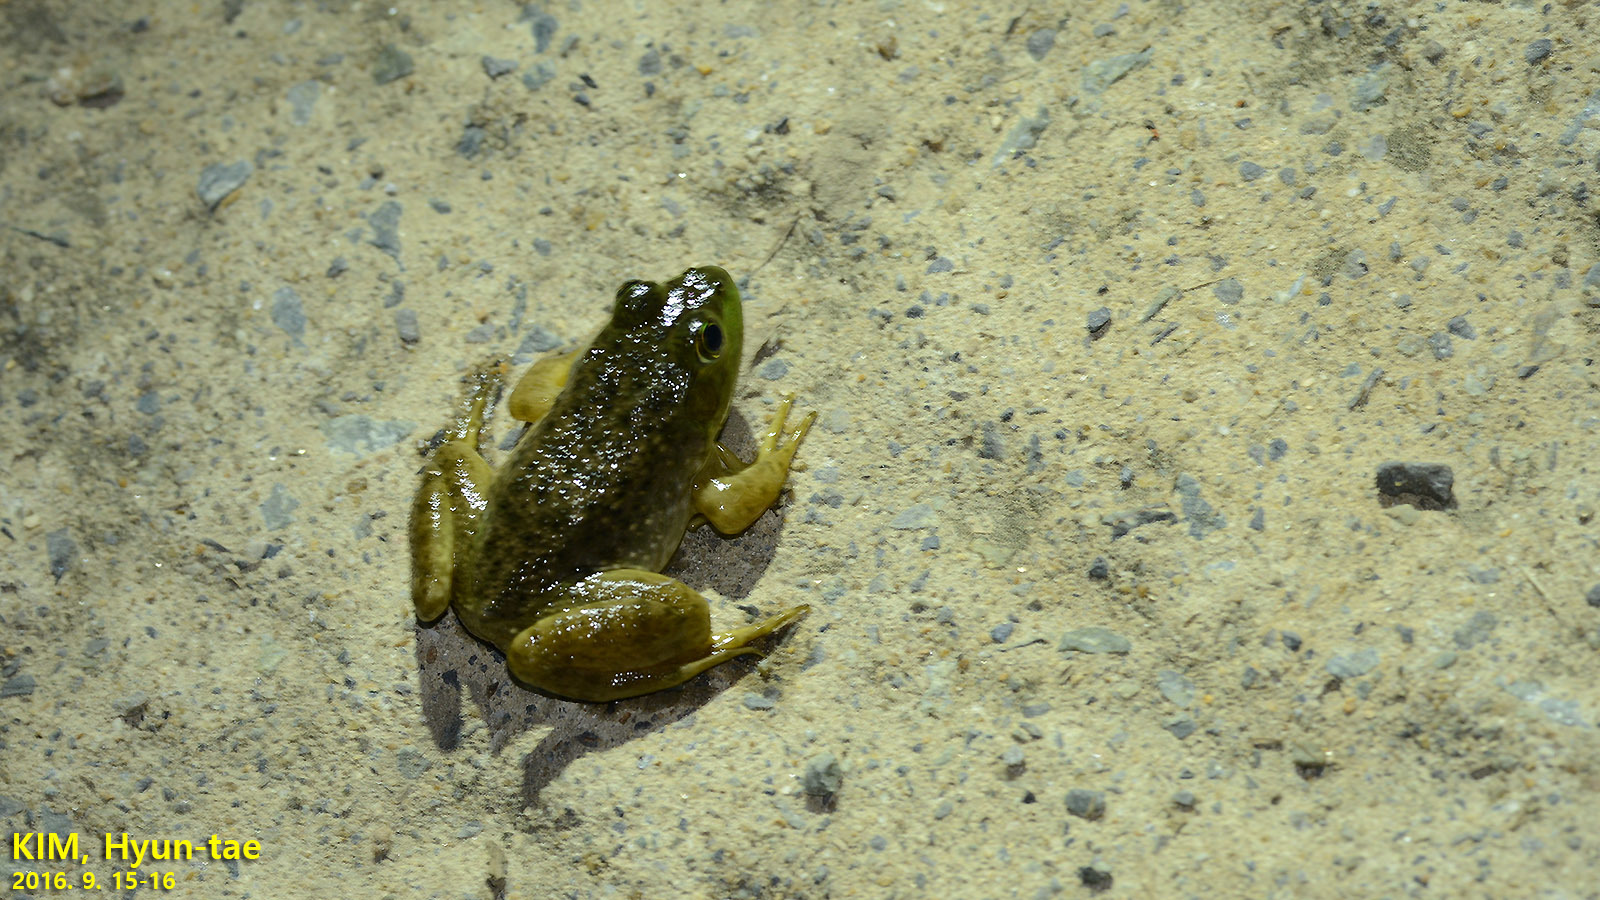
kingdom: Animalia
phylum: Chordata
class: Amphibia
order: Anura
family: Ranidae
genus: Lithobates
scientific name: Lithobates catesbeianus
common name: American bullfrog
